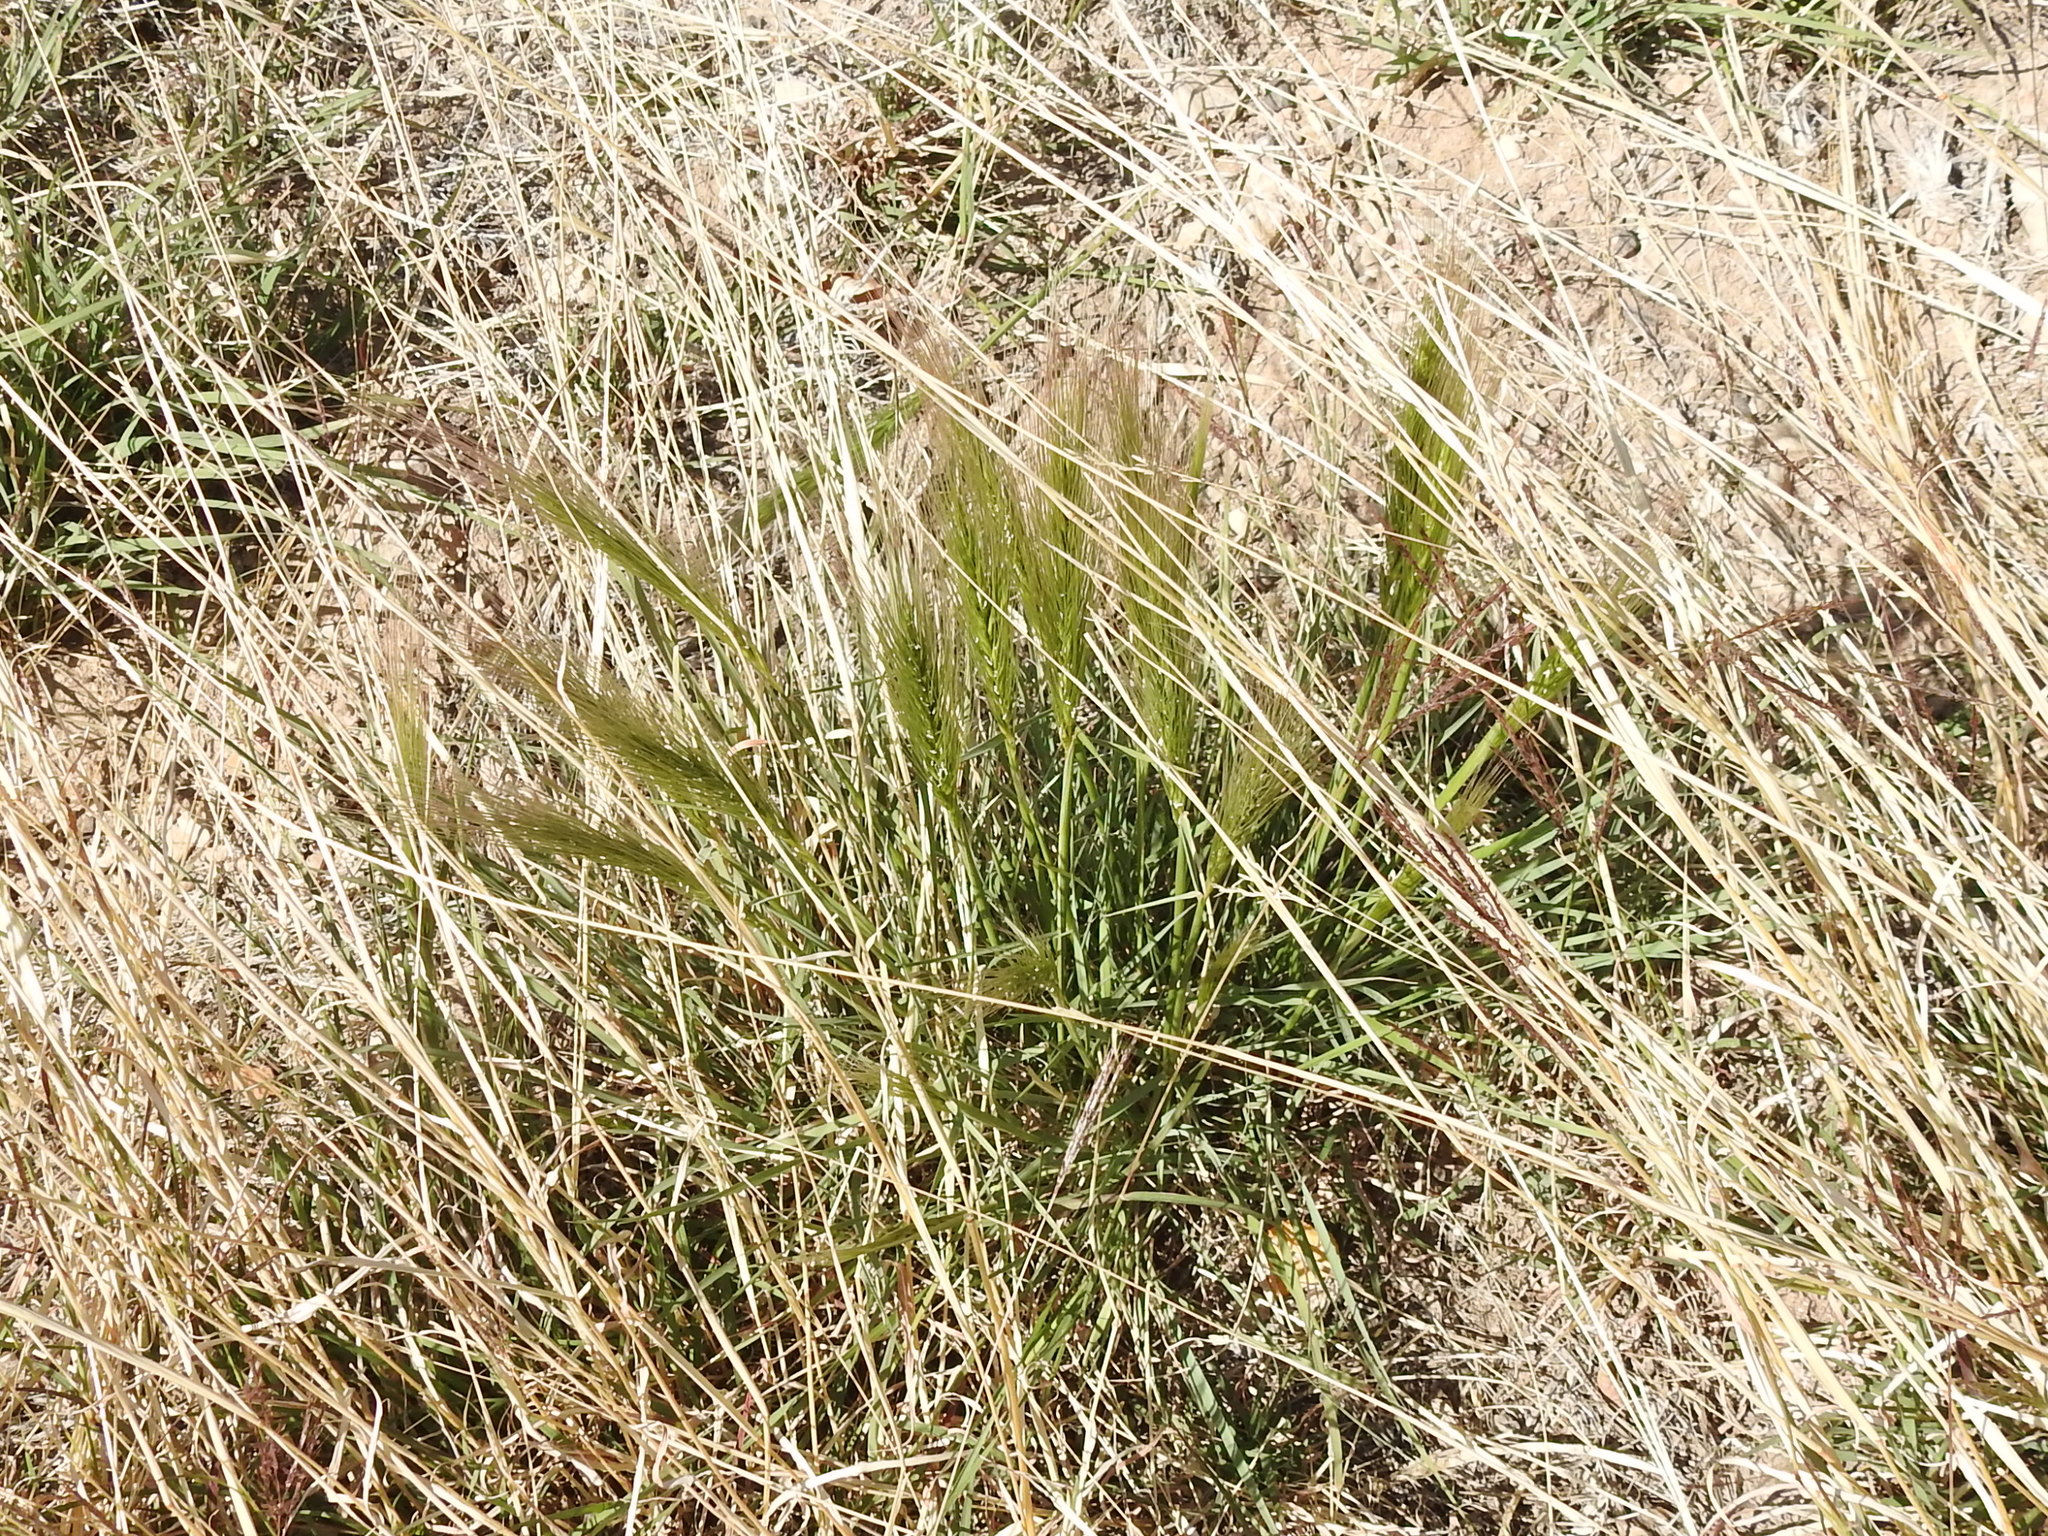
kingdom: Plantae
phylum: Tracheophyta
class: Liliopsida
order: Poales
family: Poaceae
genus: Hordeum
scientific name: Hordeum jubatum
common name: Foxtail barley
